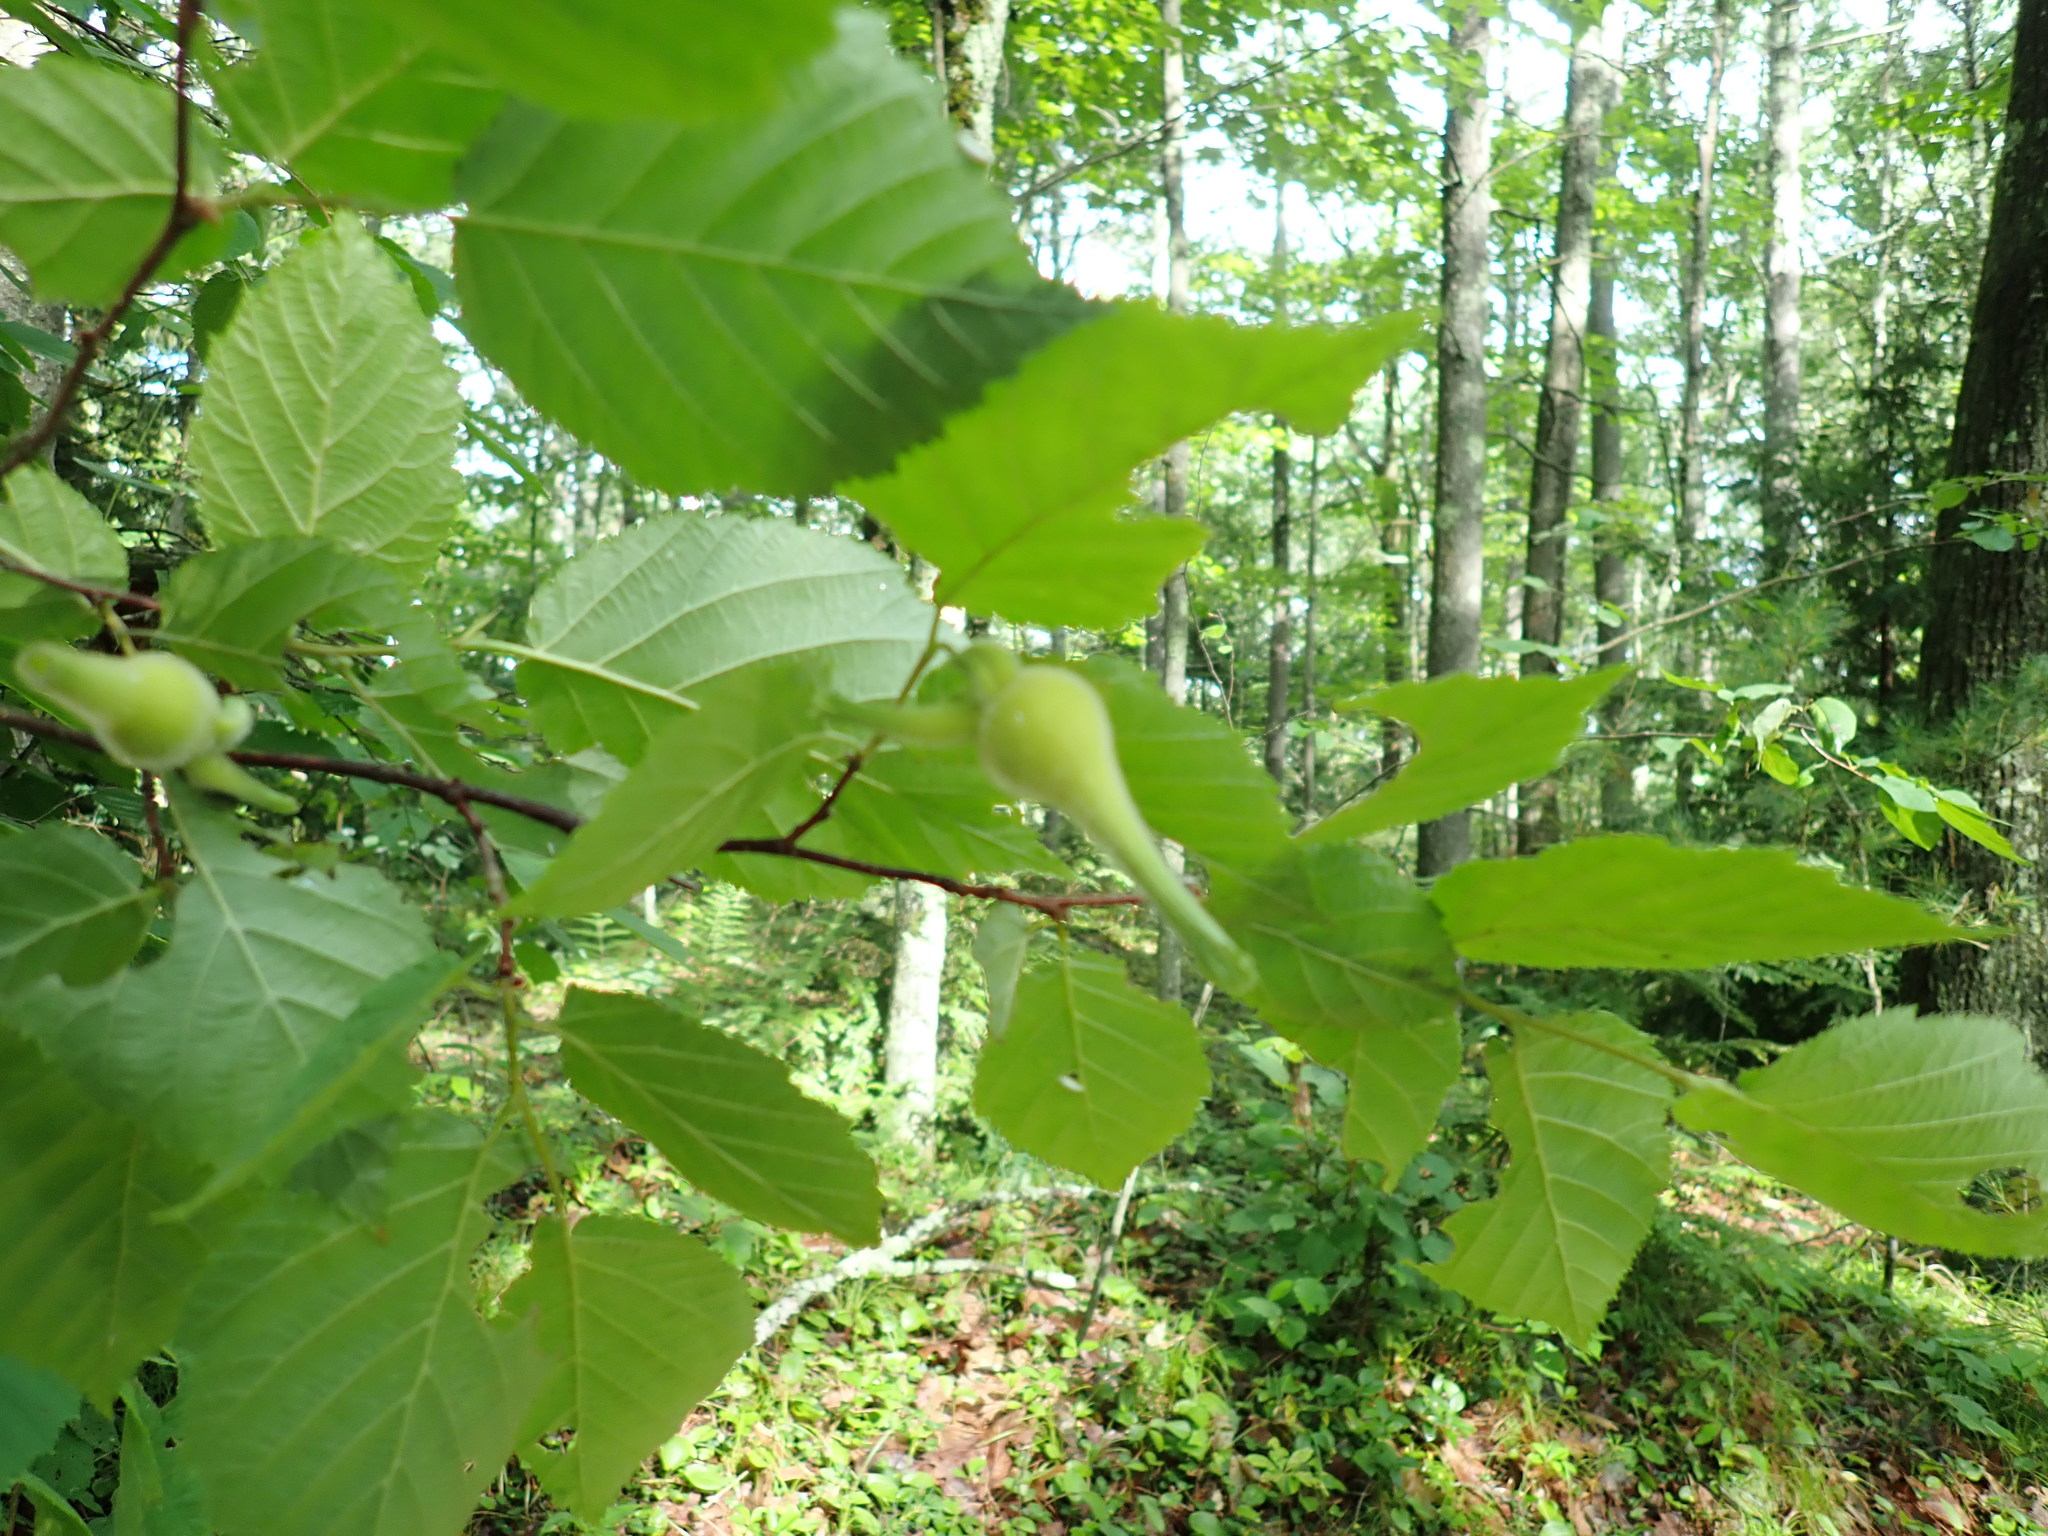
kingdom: Plantae
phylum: Tracheophyta
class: Magnoliopsida
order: Fagales
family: Betulaceae
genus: Corylus
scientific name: Corylus cornuta
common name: Beaked hazel
